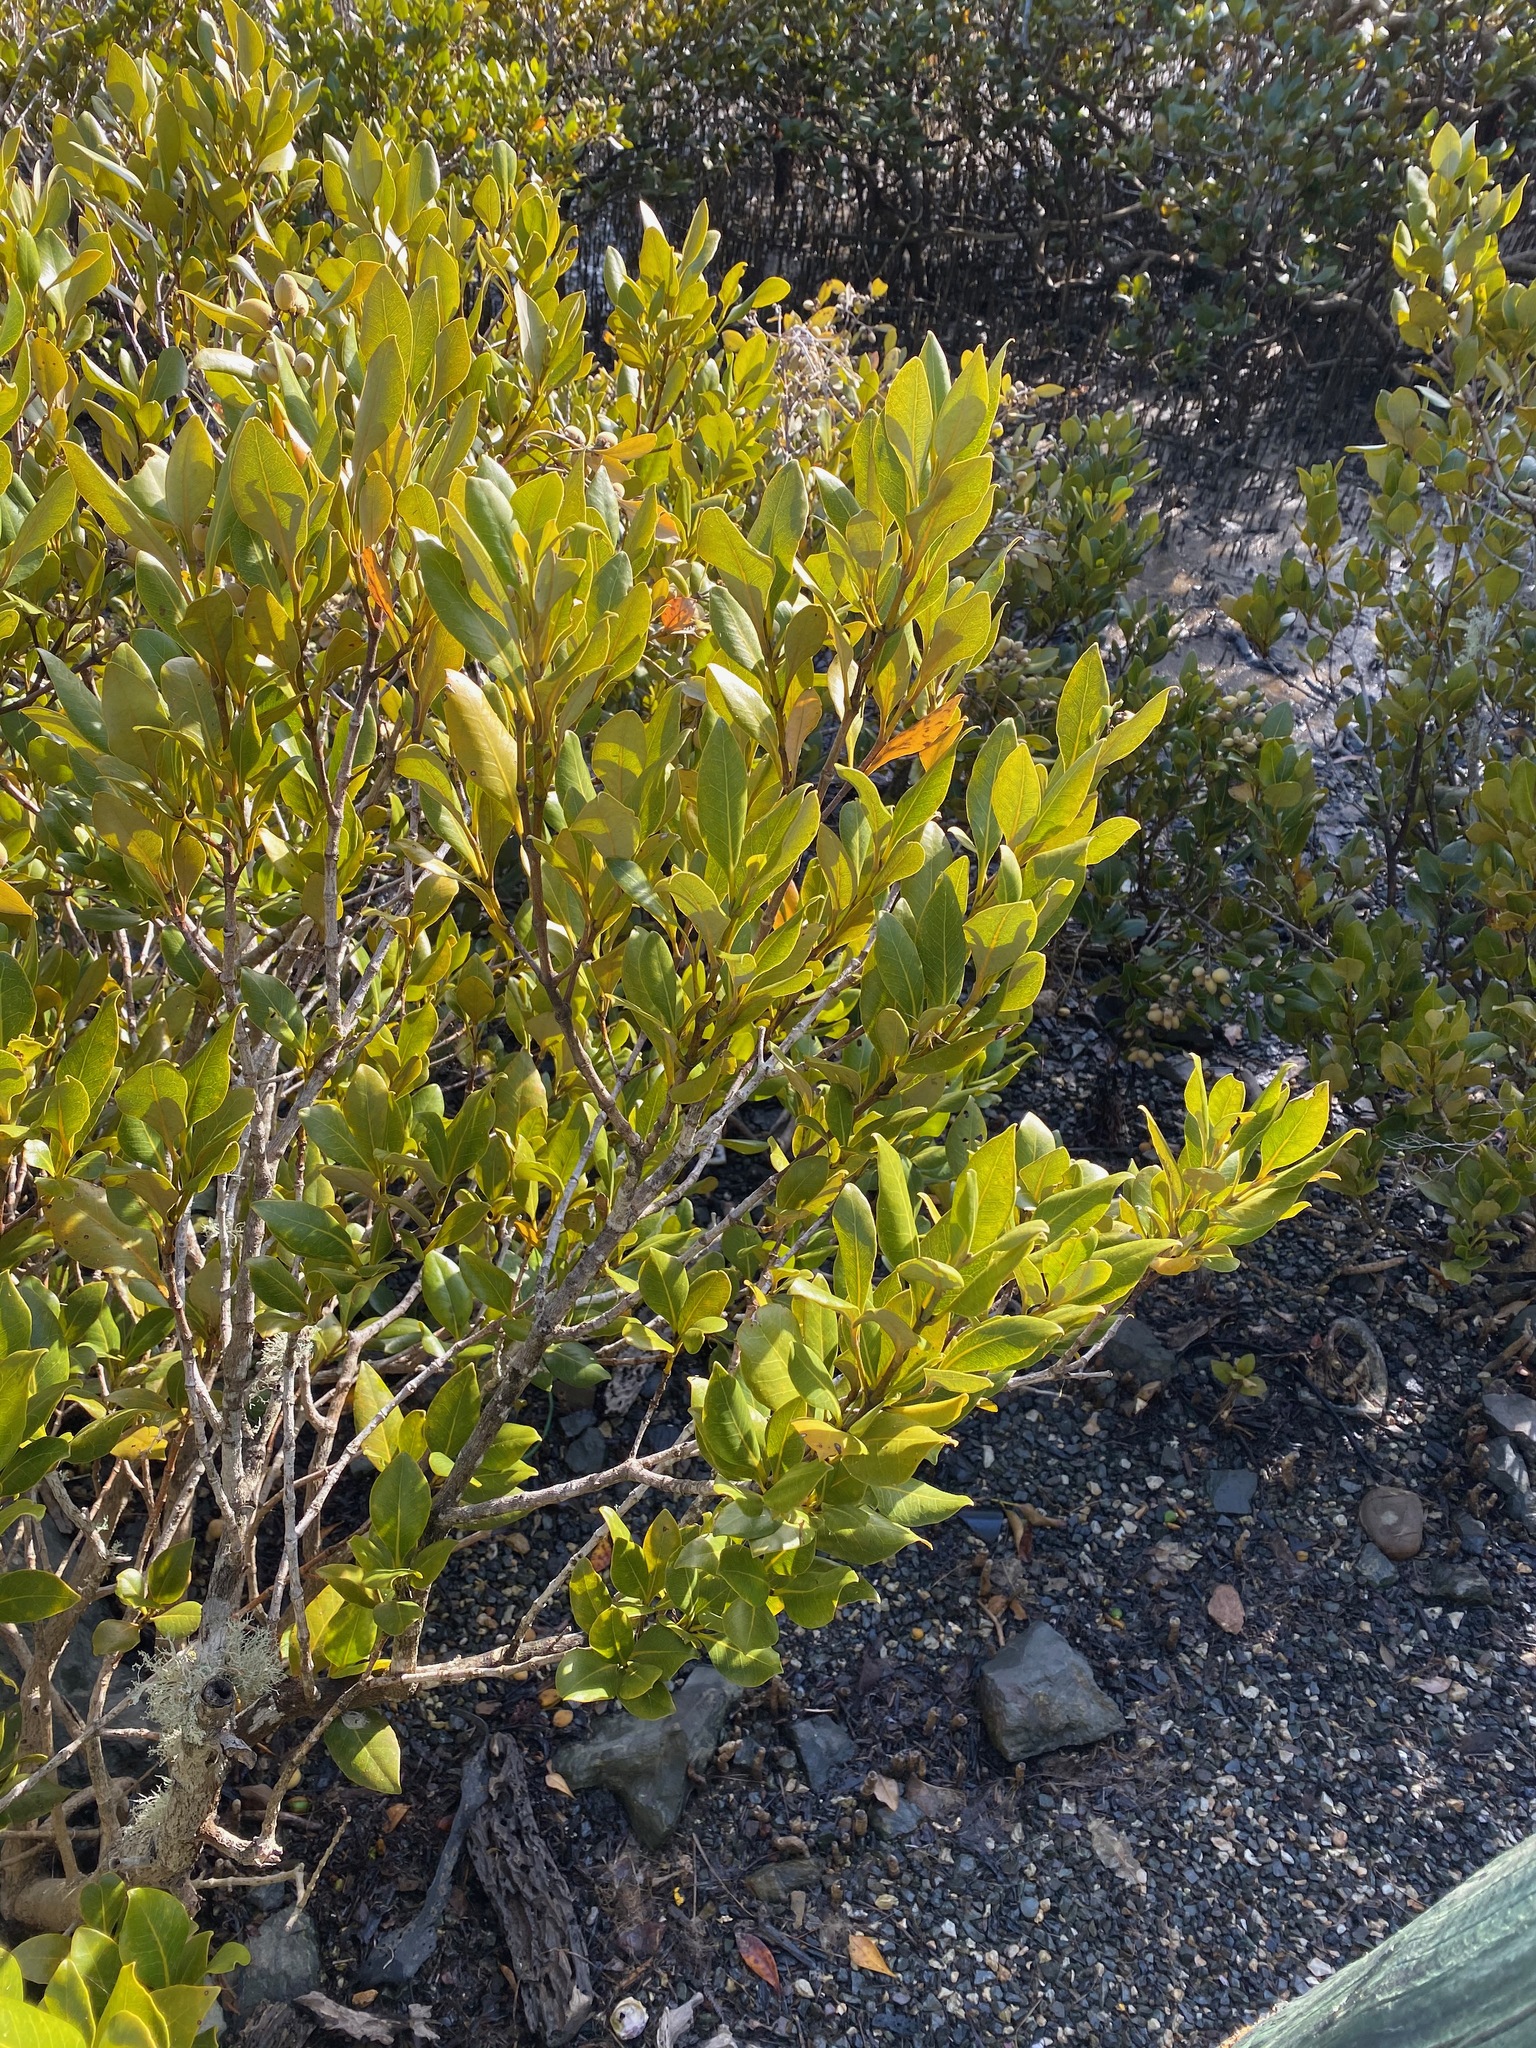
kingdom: Plantae
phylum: Tracheophyta
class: Magnoliopsida
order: Lamiales
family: Acanthaceae
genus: Avicennia
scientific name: Avicennia marina
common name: Gray mangrove
